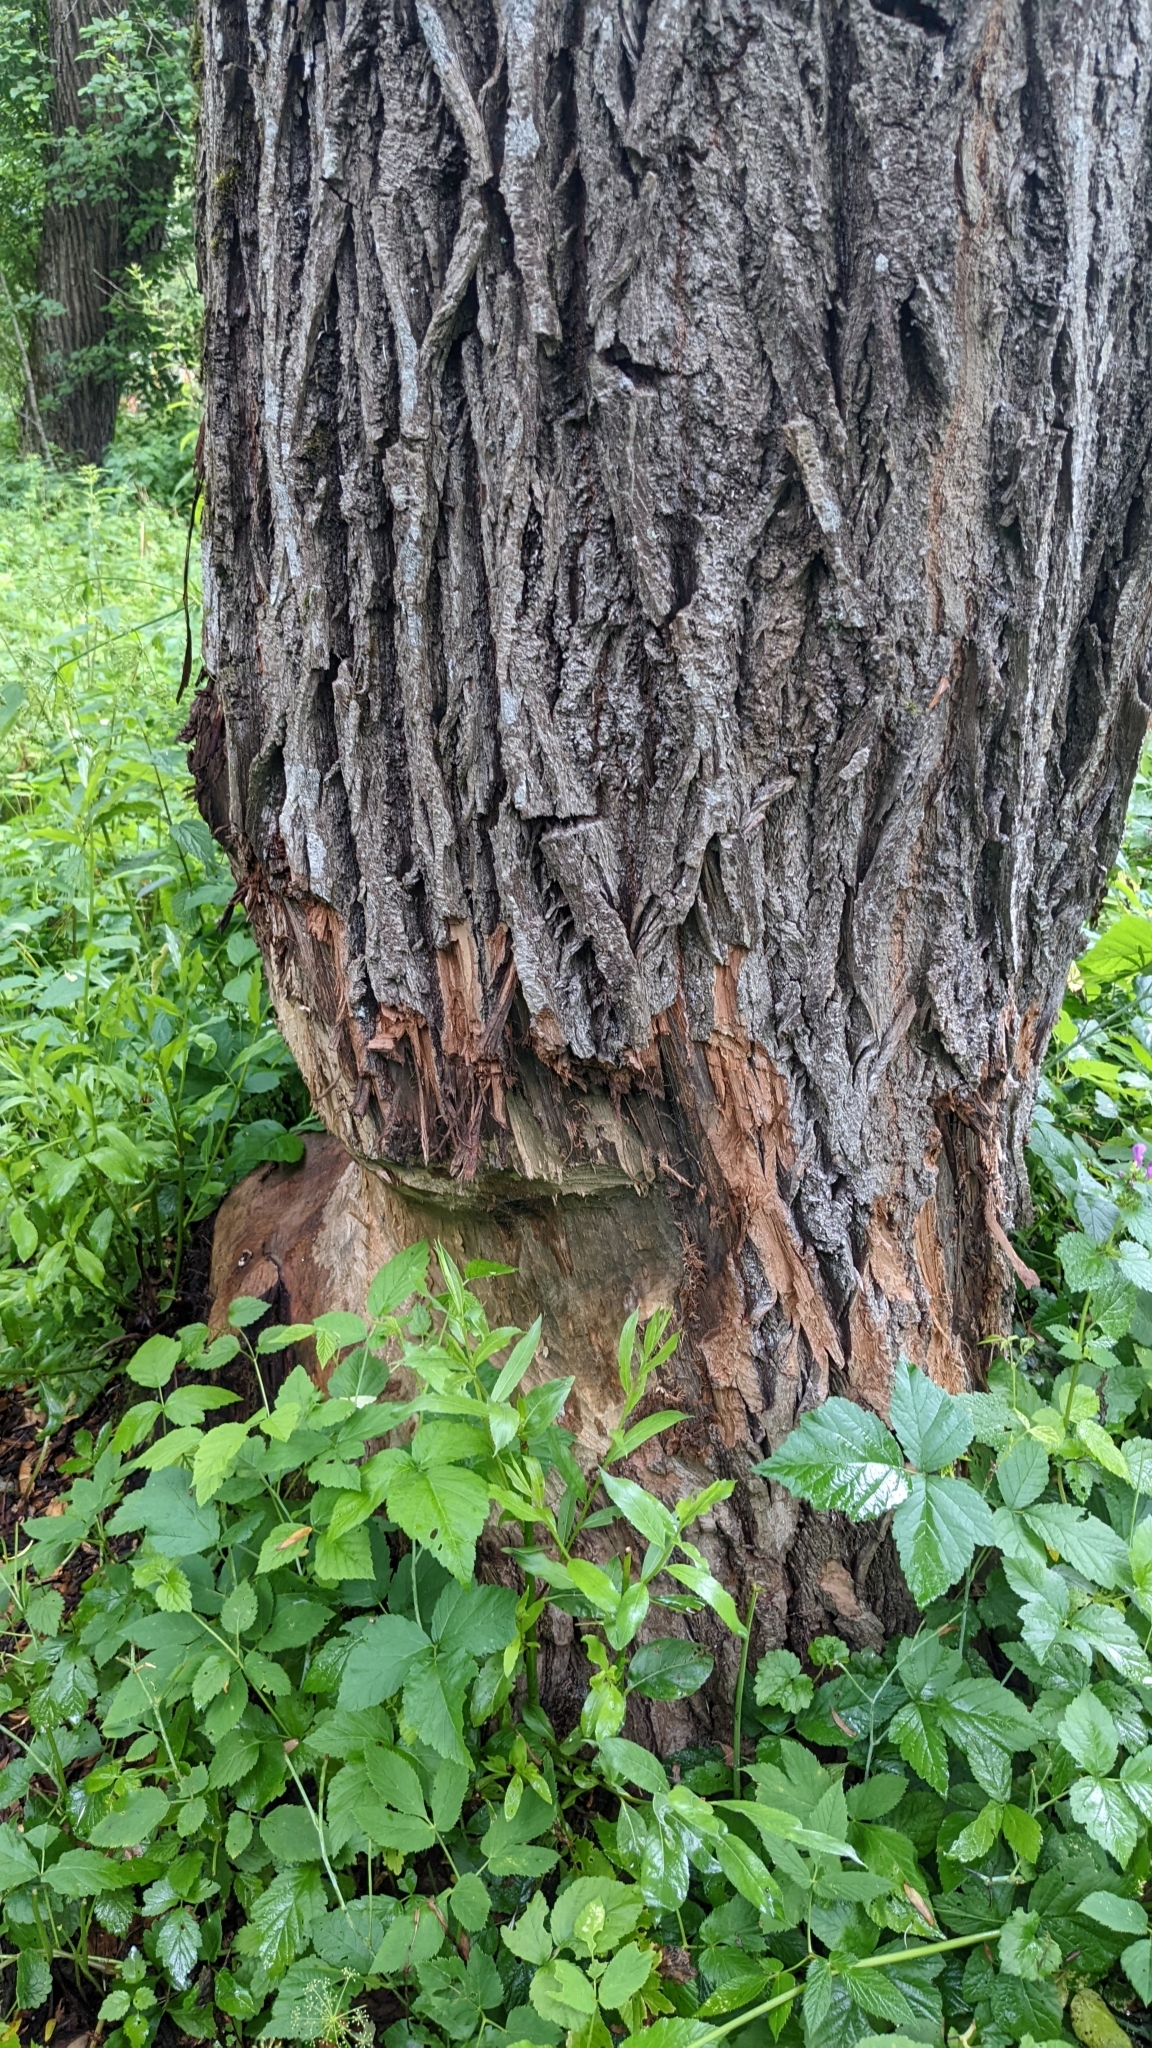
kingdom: Animalia
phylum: Chordata
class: Mammalia
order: Rodentia
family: Castoridae
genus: Castor
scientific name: Castor fiber
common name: Eurasian beaver
